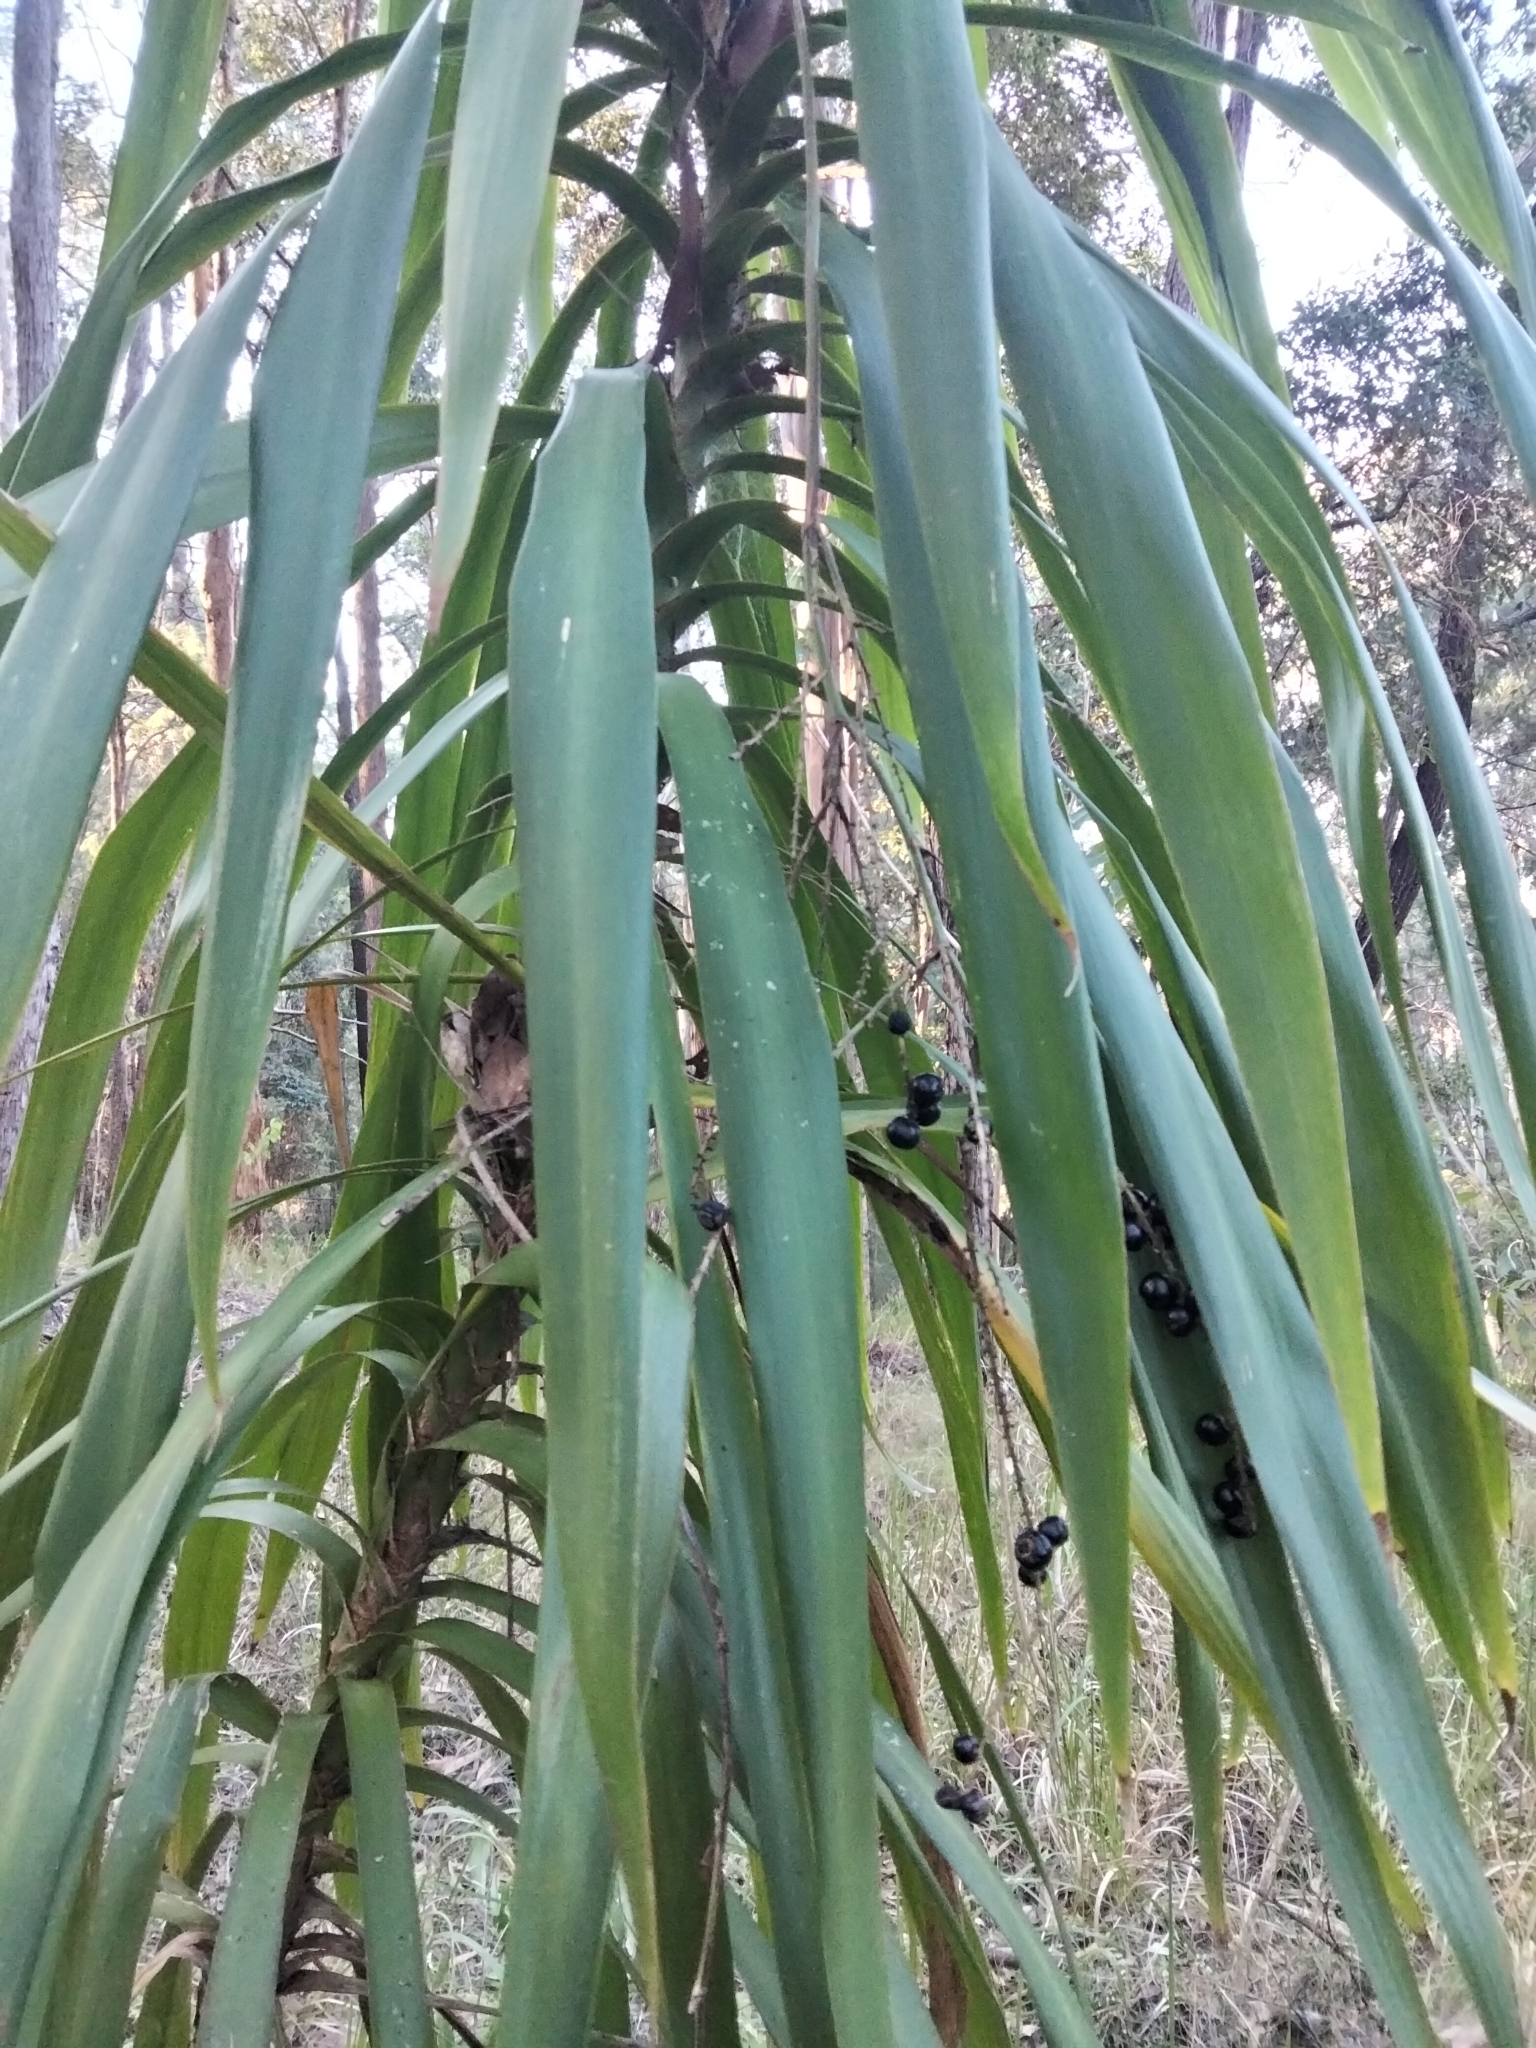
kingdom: Plantae
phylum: Tracheophyta
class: Liliopsida
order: Asparagales
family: Asparagaceae
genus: Cordyline
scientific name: Cordyline stricta
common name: Narrow-leaf palm-lily
